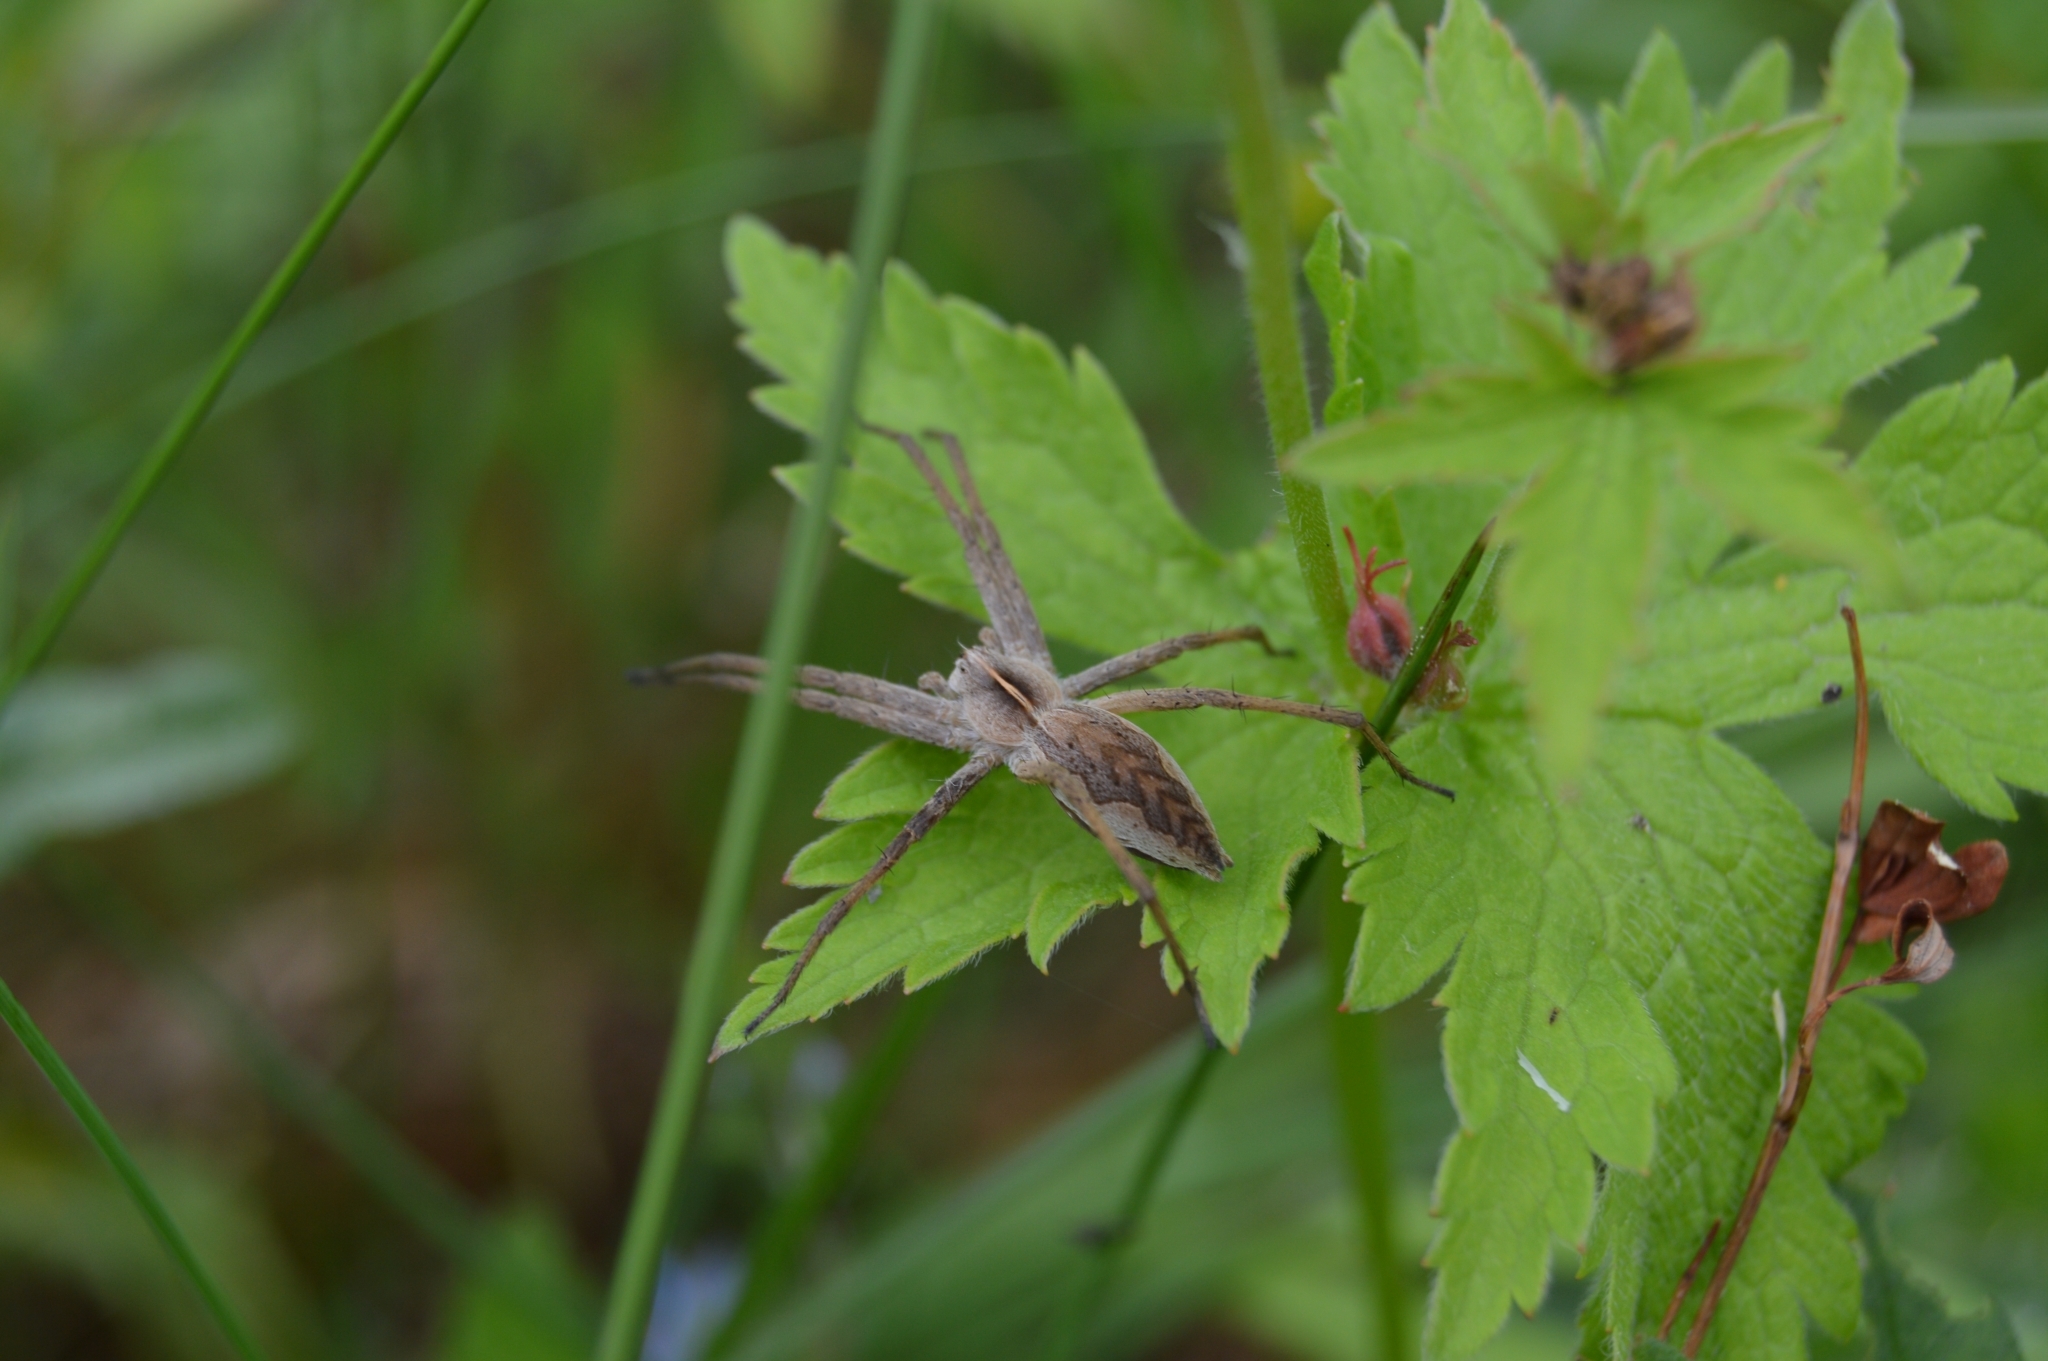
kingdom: Animalia
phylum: Arthropoda
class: Arachnida
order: Araneae
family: Pisauridae
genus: Pisaura
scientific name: Pisaura mirabilis
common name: Tent spider
